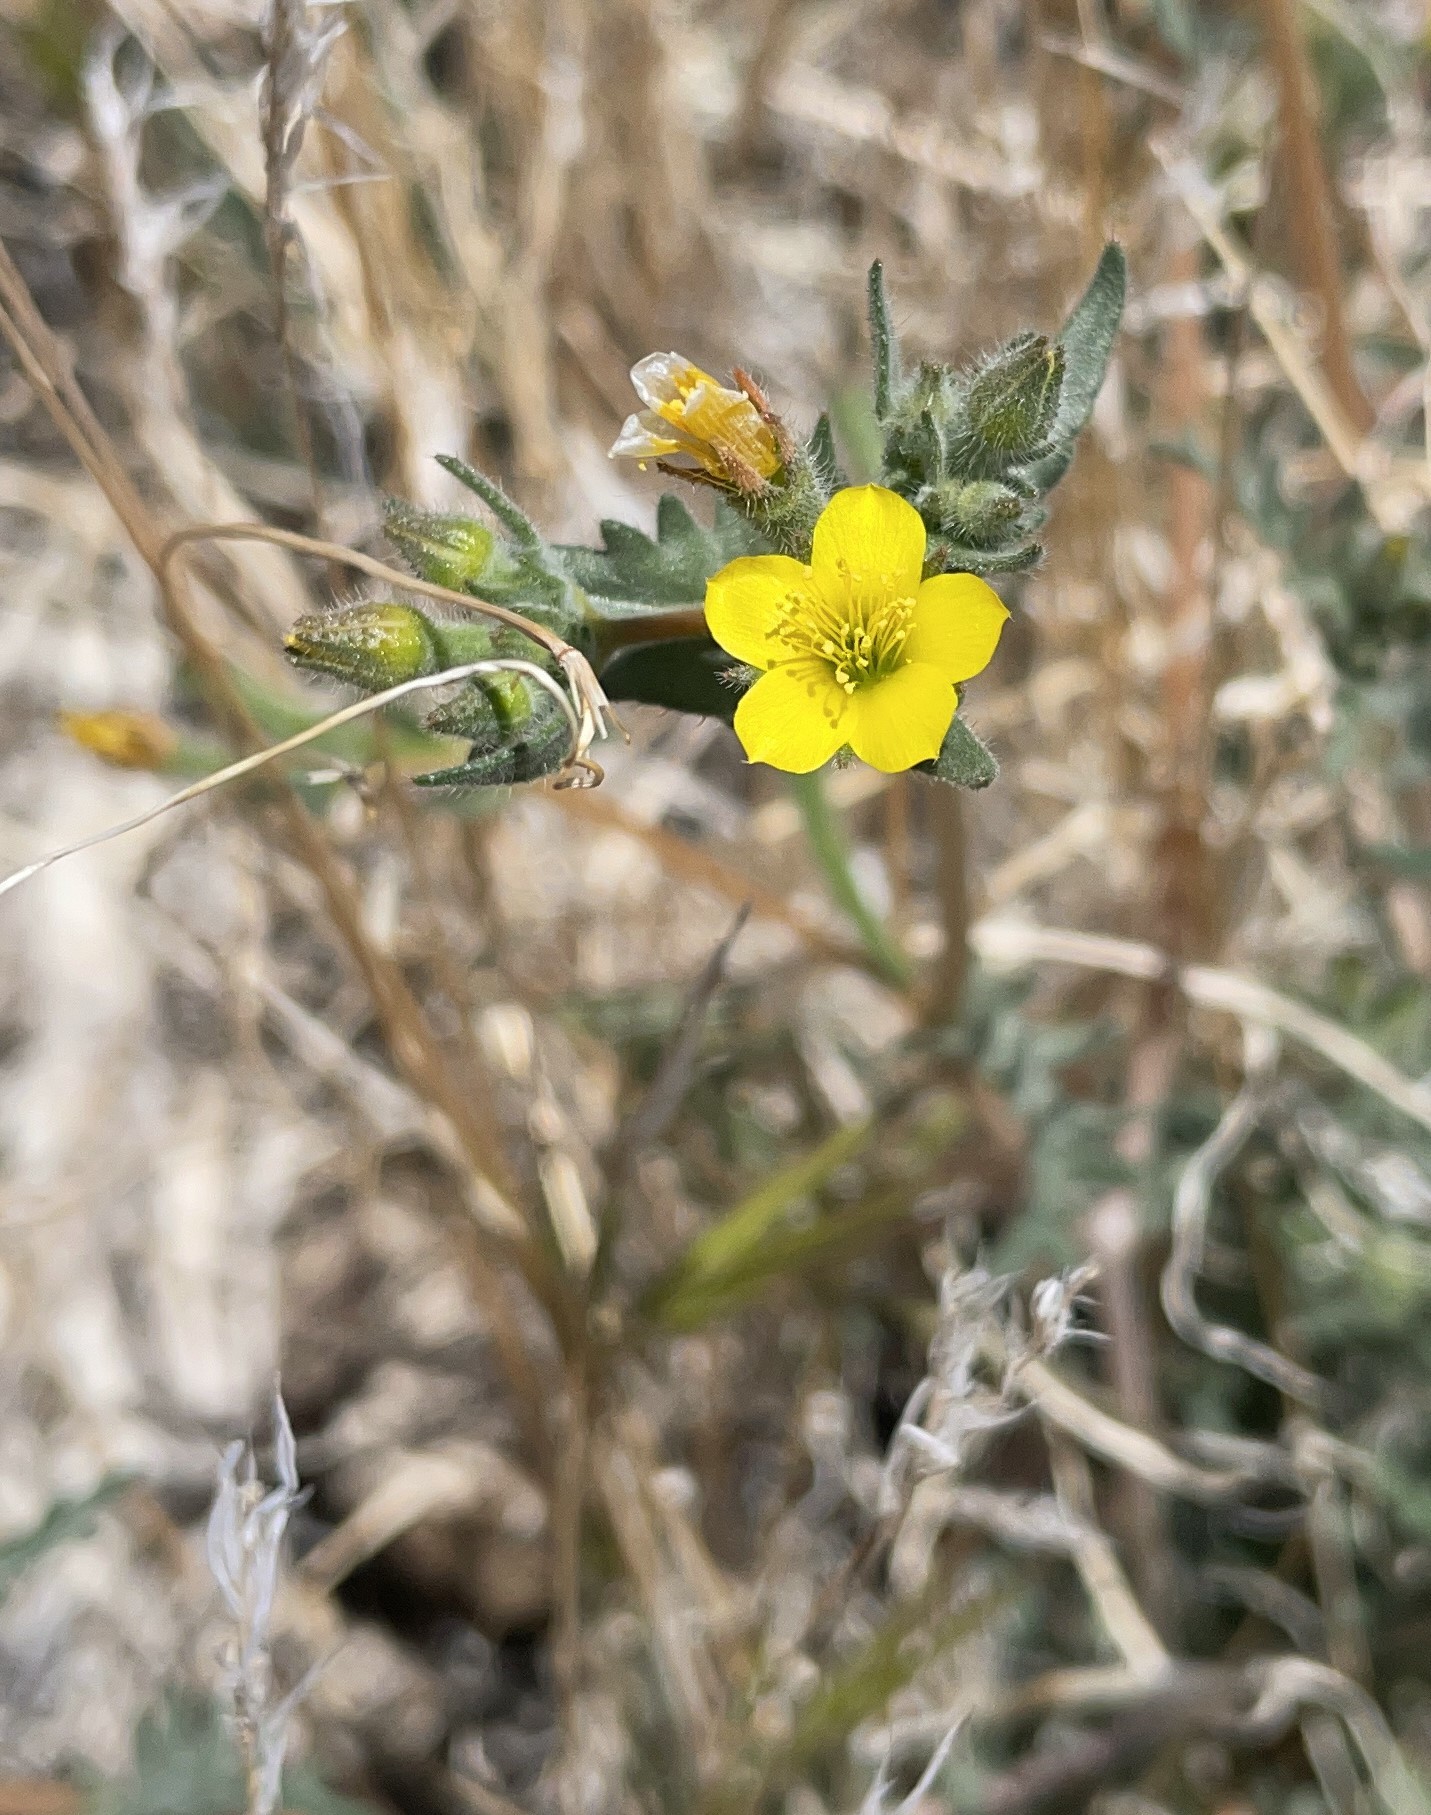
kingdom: Plantae
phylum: Tracheophyta
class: Magnoliopsida
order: Cornales
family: Loasaceae
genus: Mentzelia
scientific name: Mentzelia albicaulis
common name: White-stem blazingstar
